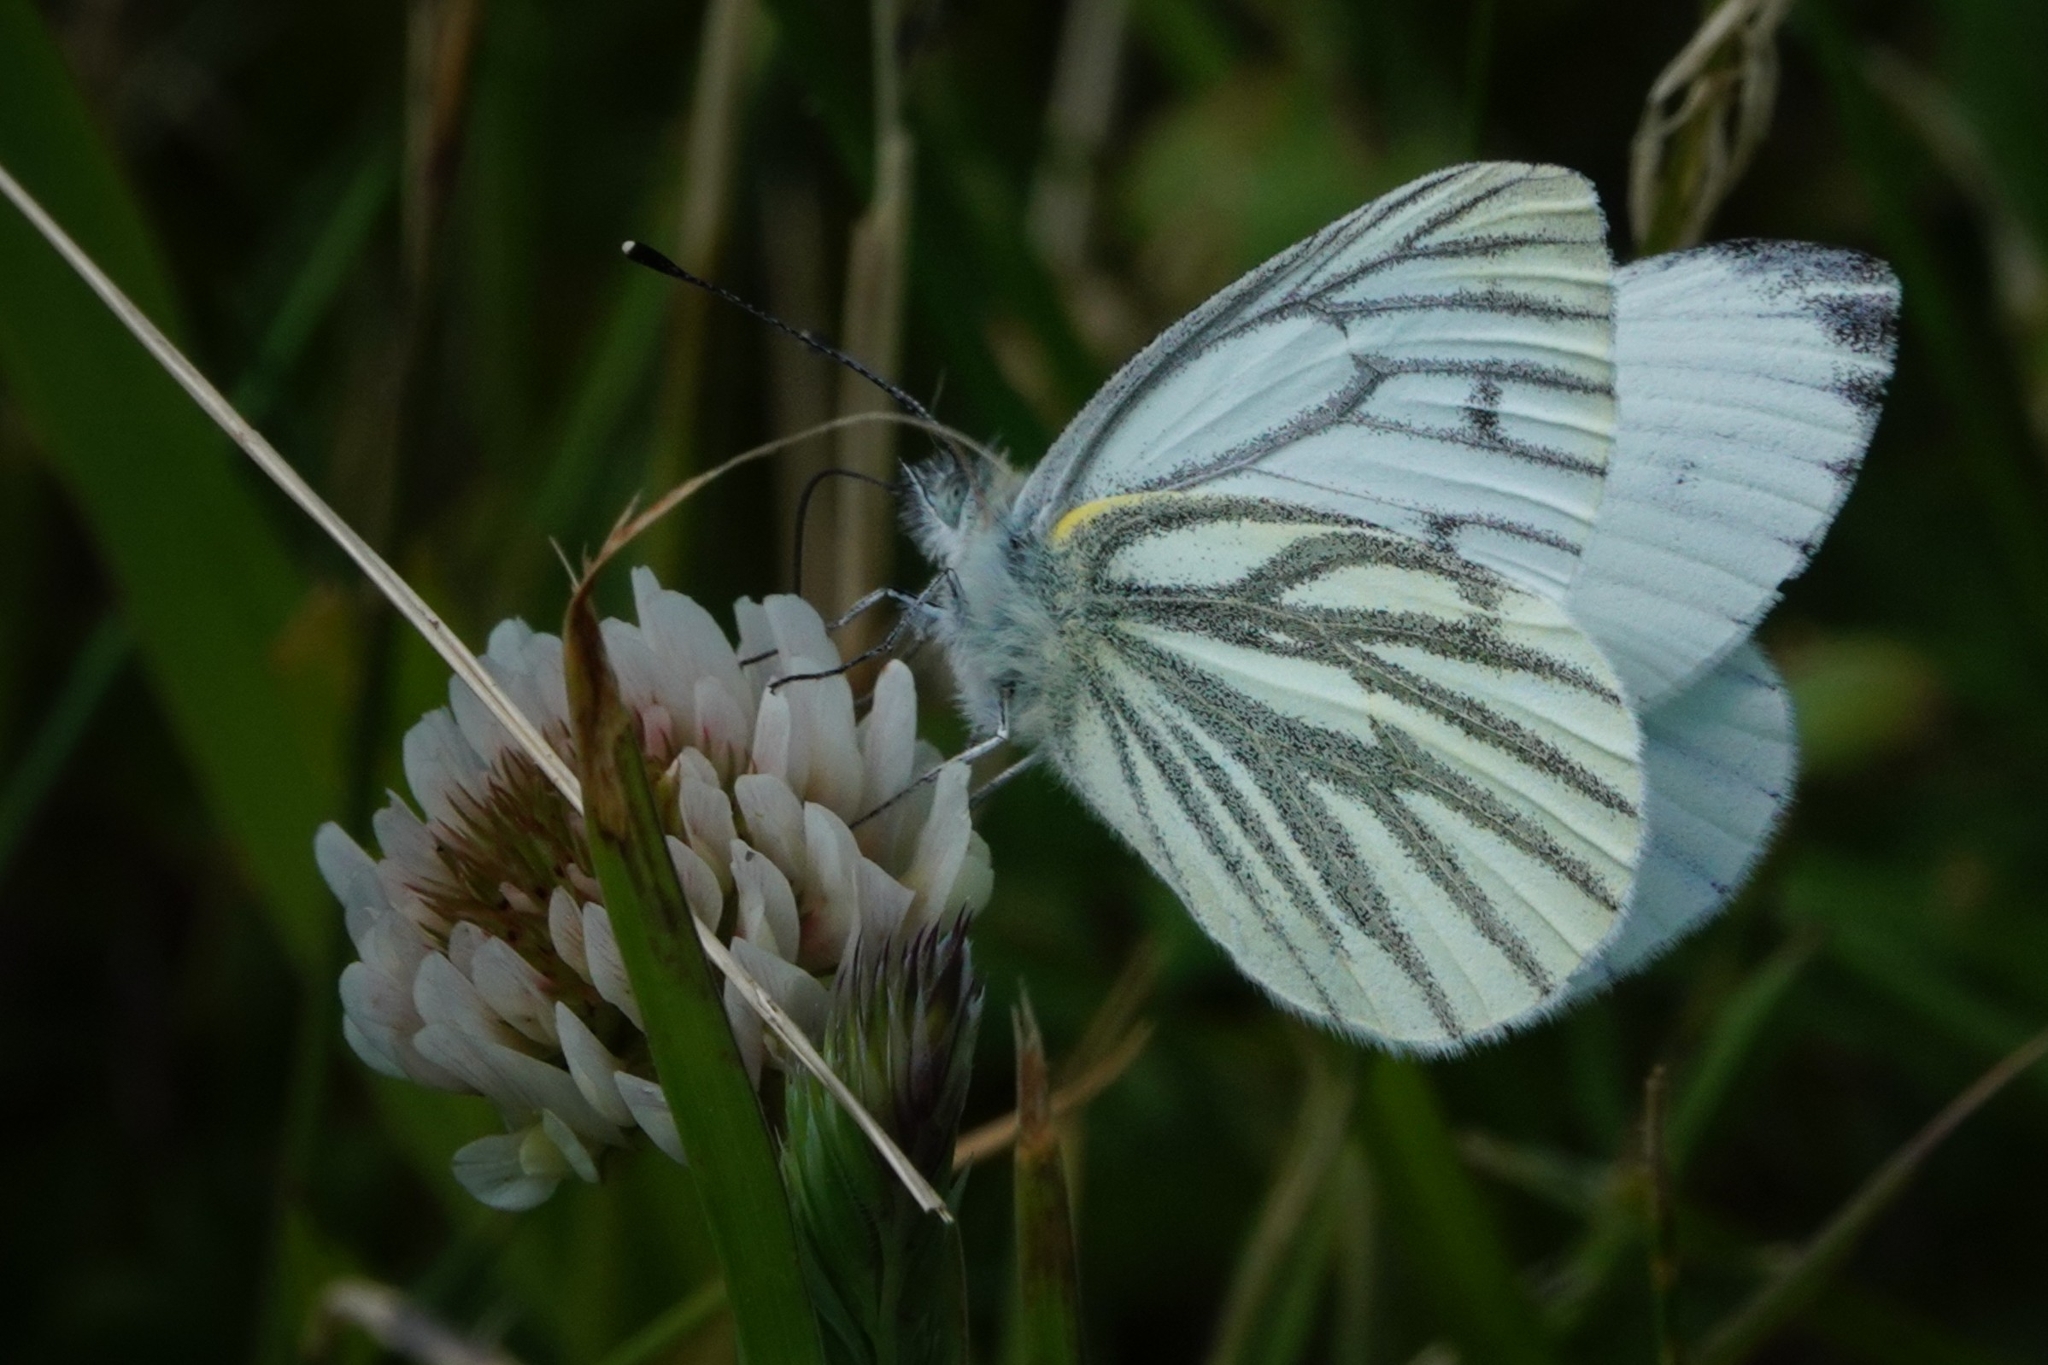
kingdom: Animalia
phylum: Arthropoda
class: Insecta
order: Lepidoptera
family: Pieridae
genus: Pieris
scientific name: Pieris napi
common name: Green-veined white
